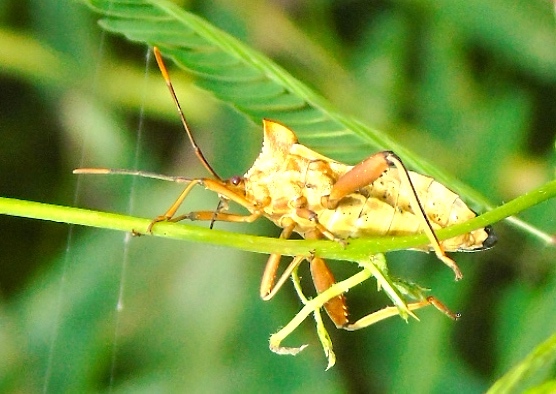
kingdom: Animalia
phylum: Arthropoda
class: Insecta
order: Hemiptera
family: Coreidae
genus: Mozena
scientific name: Mozena
